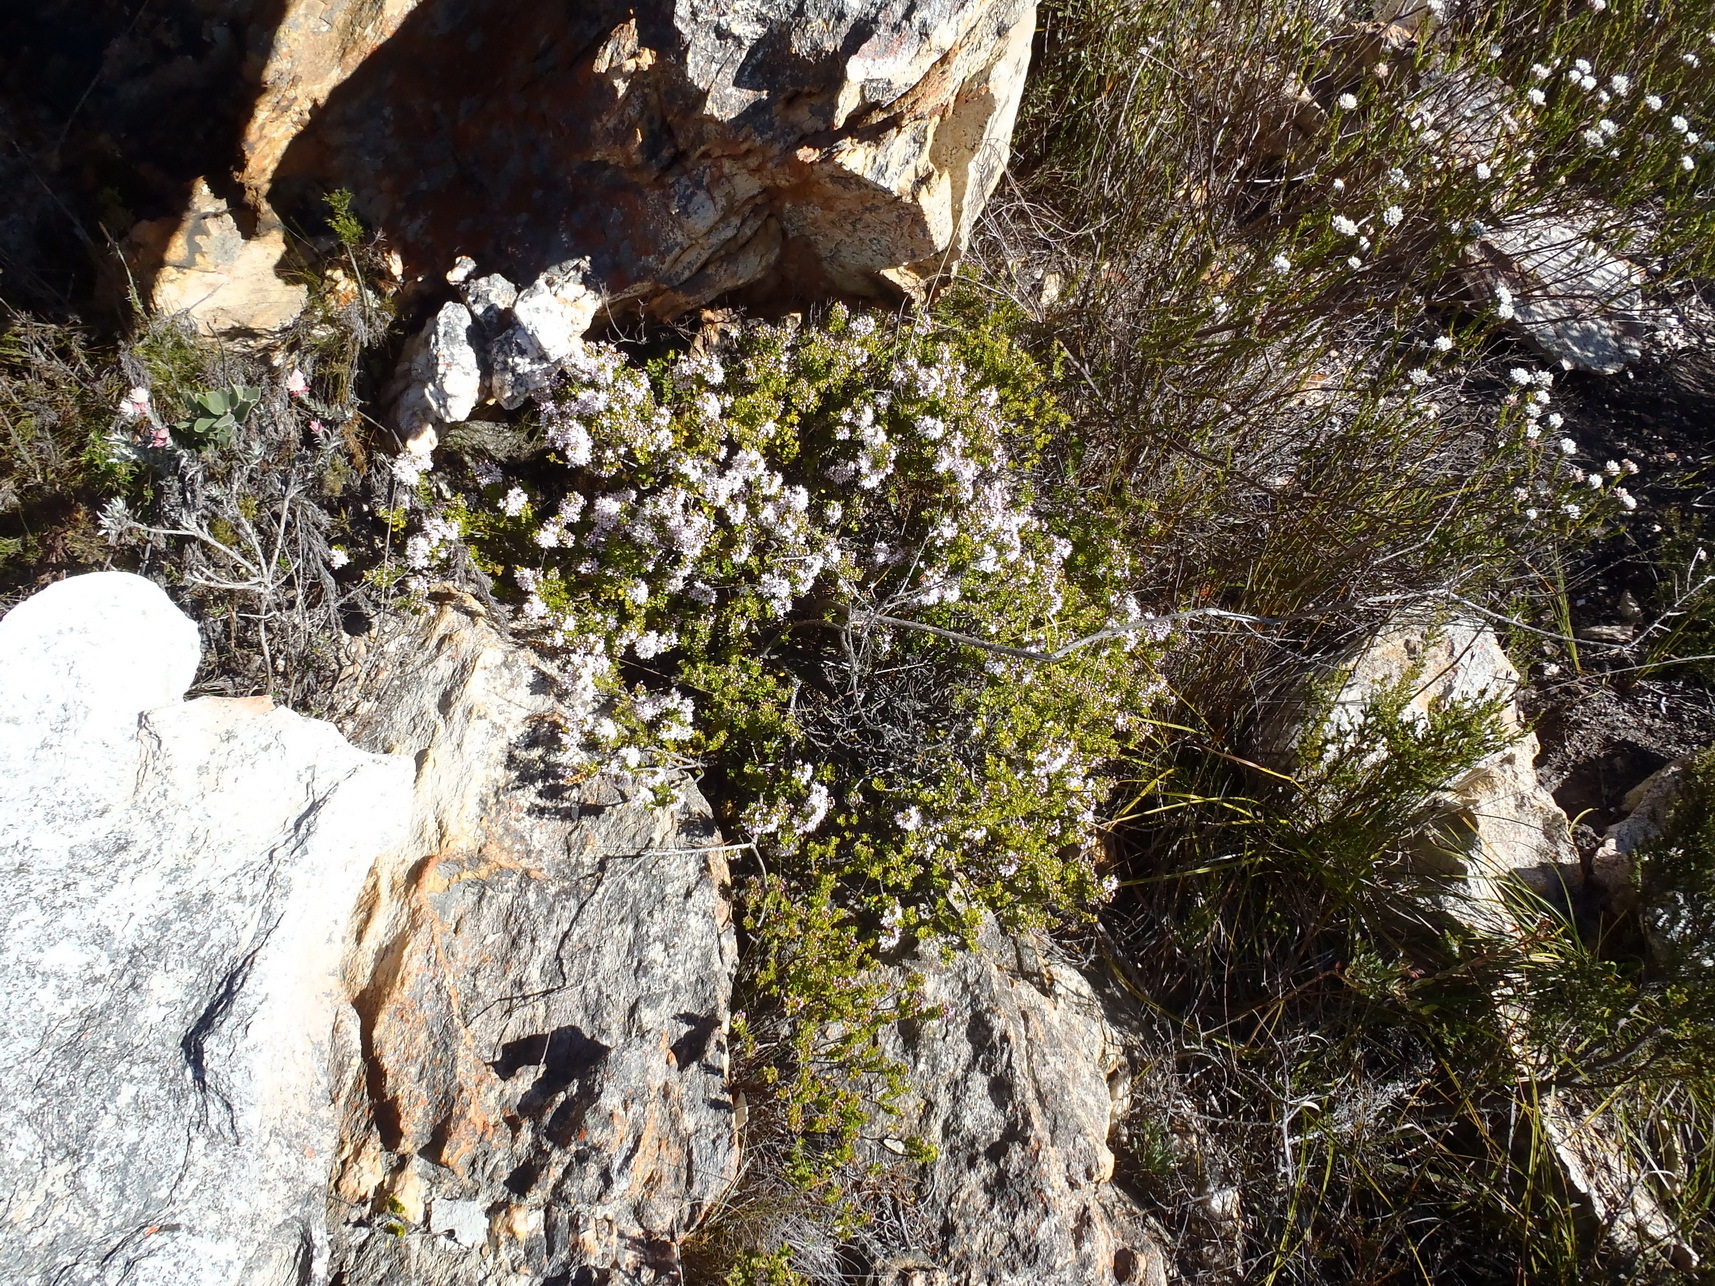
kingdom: Plantae
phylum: Tracheophyta
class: Magnoliopsida
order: Sapindales
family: Rutaceae
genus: Agathosma
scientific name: Agathosma ovata
